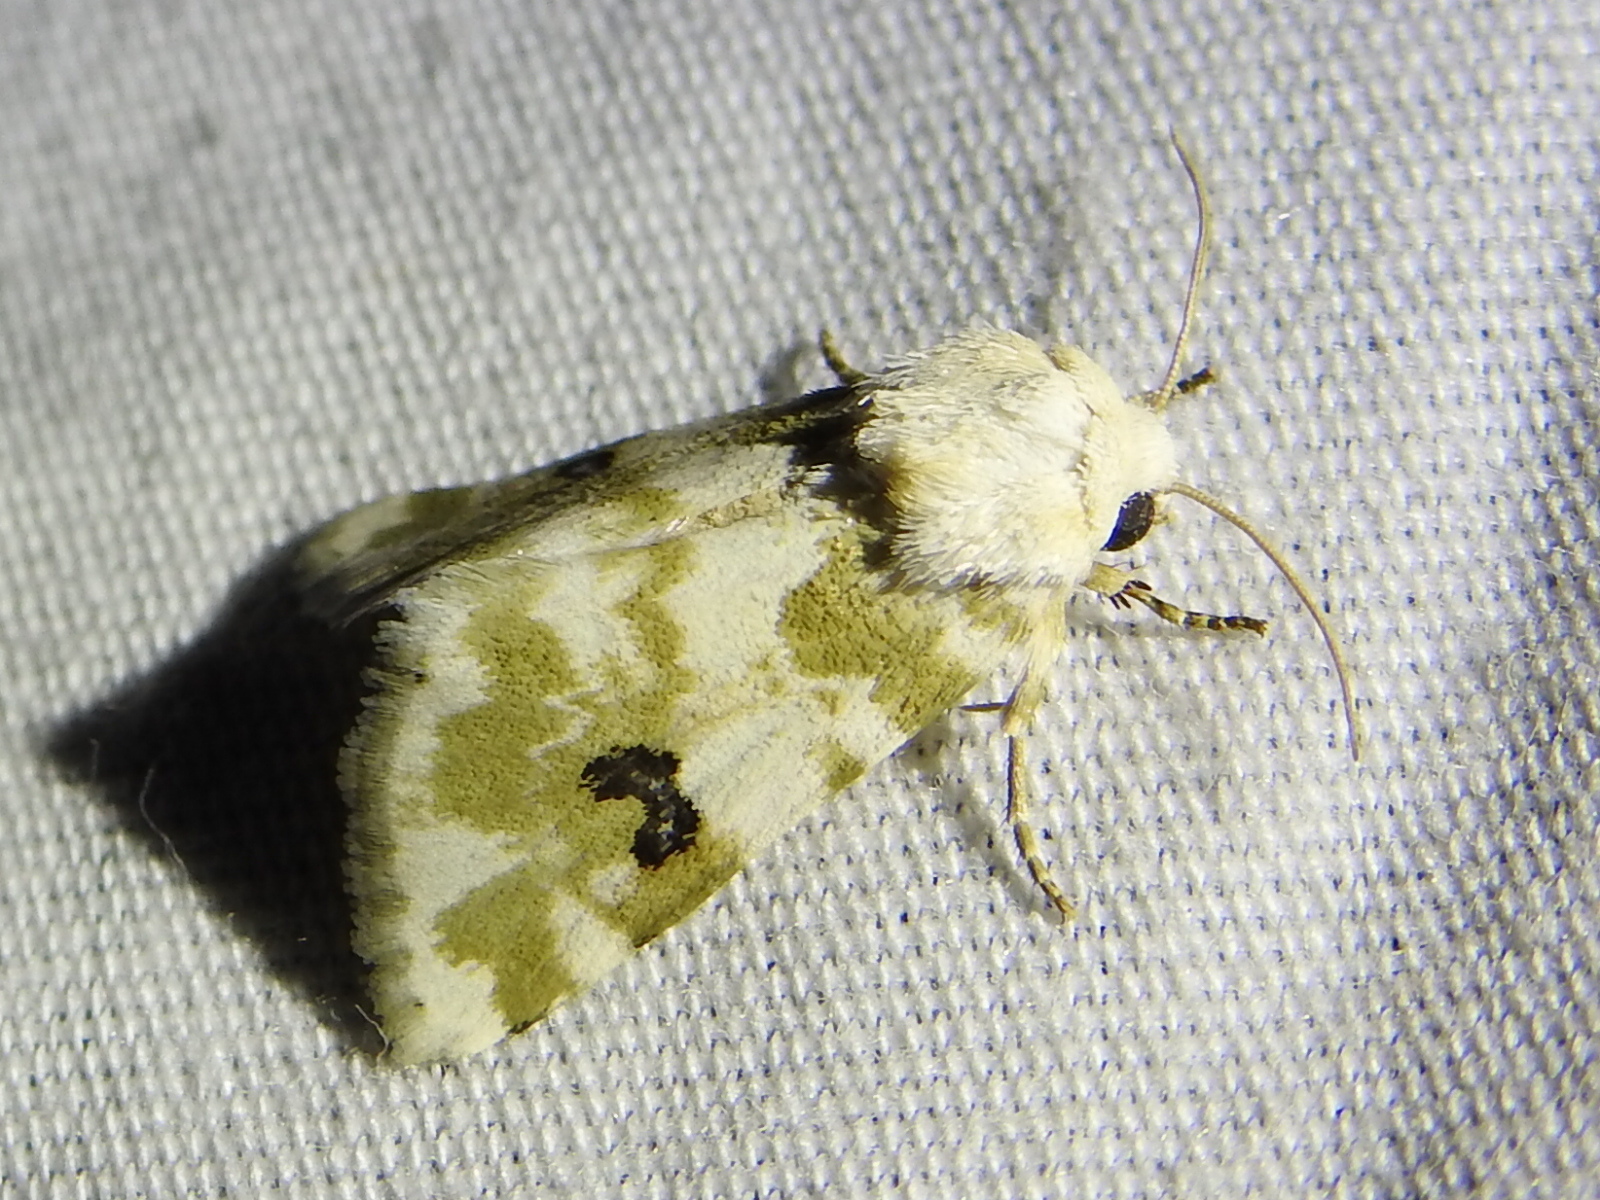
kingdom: Animalia
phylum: Arthropoda
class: Insecta
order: Lepidoptera
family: Noctuidae
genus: Schinia
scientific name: Schinia nundina
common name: Goldenrod flower moth
